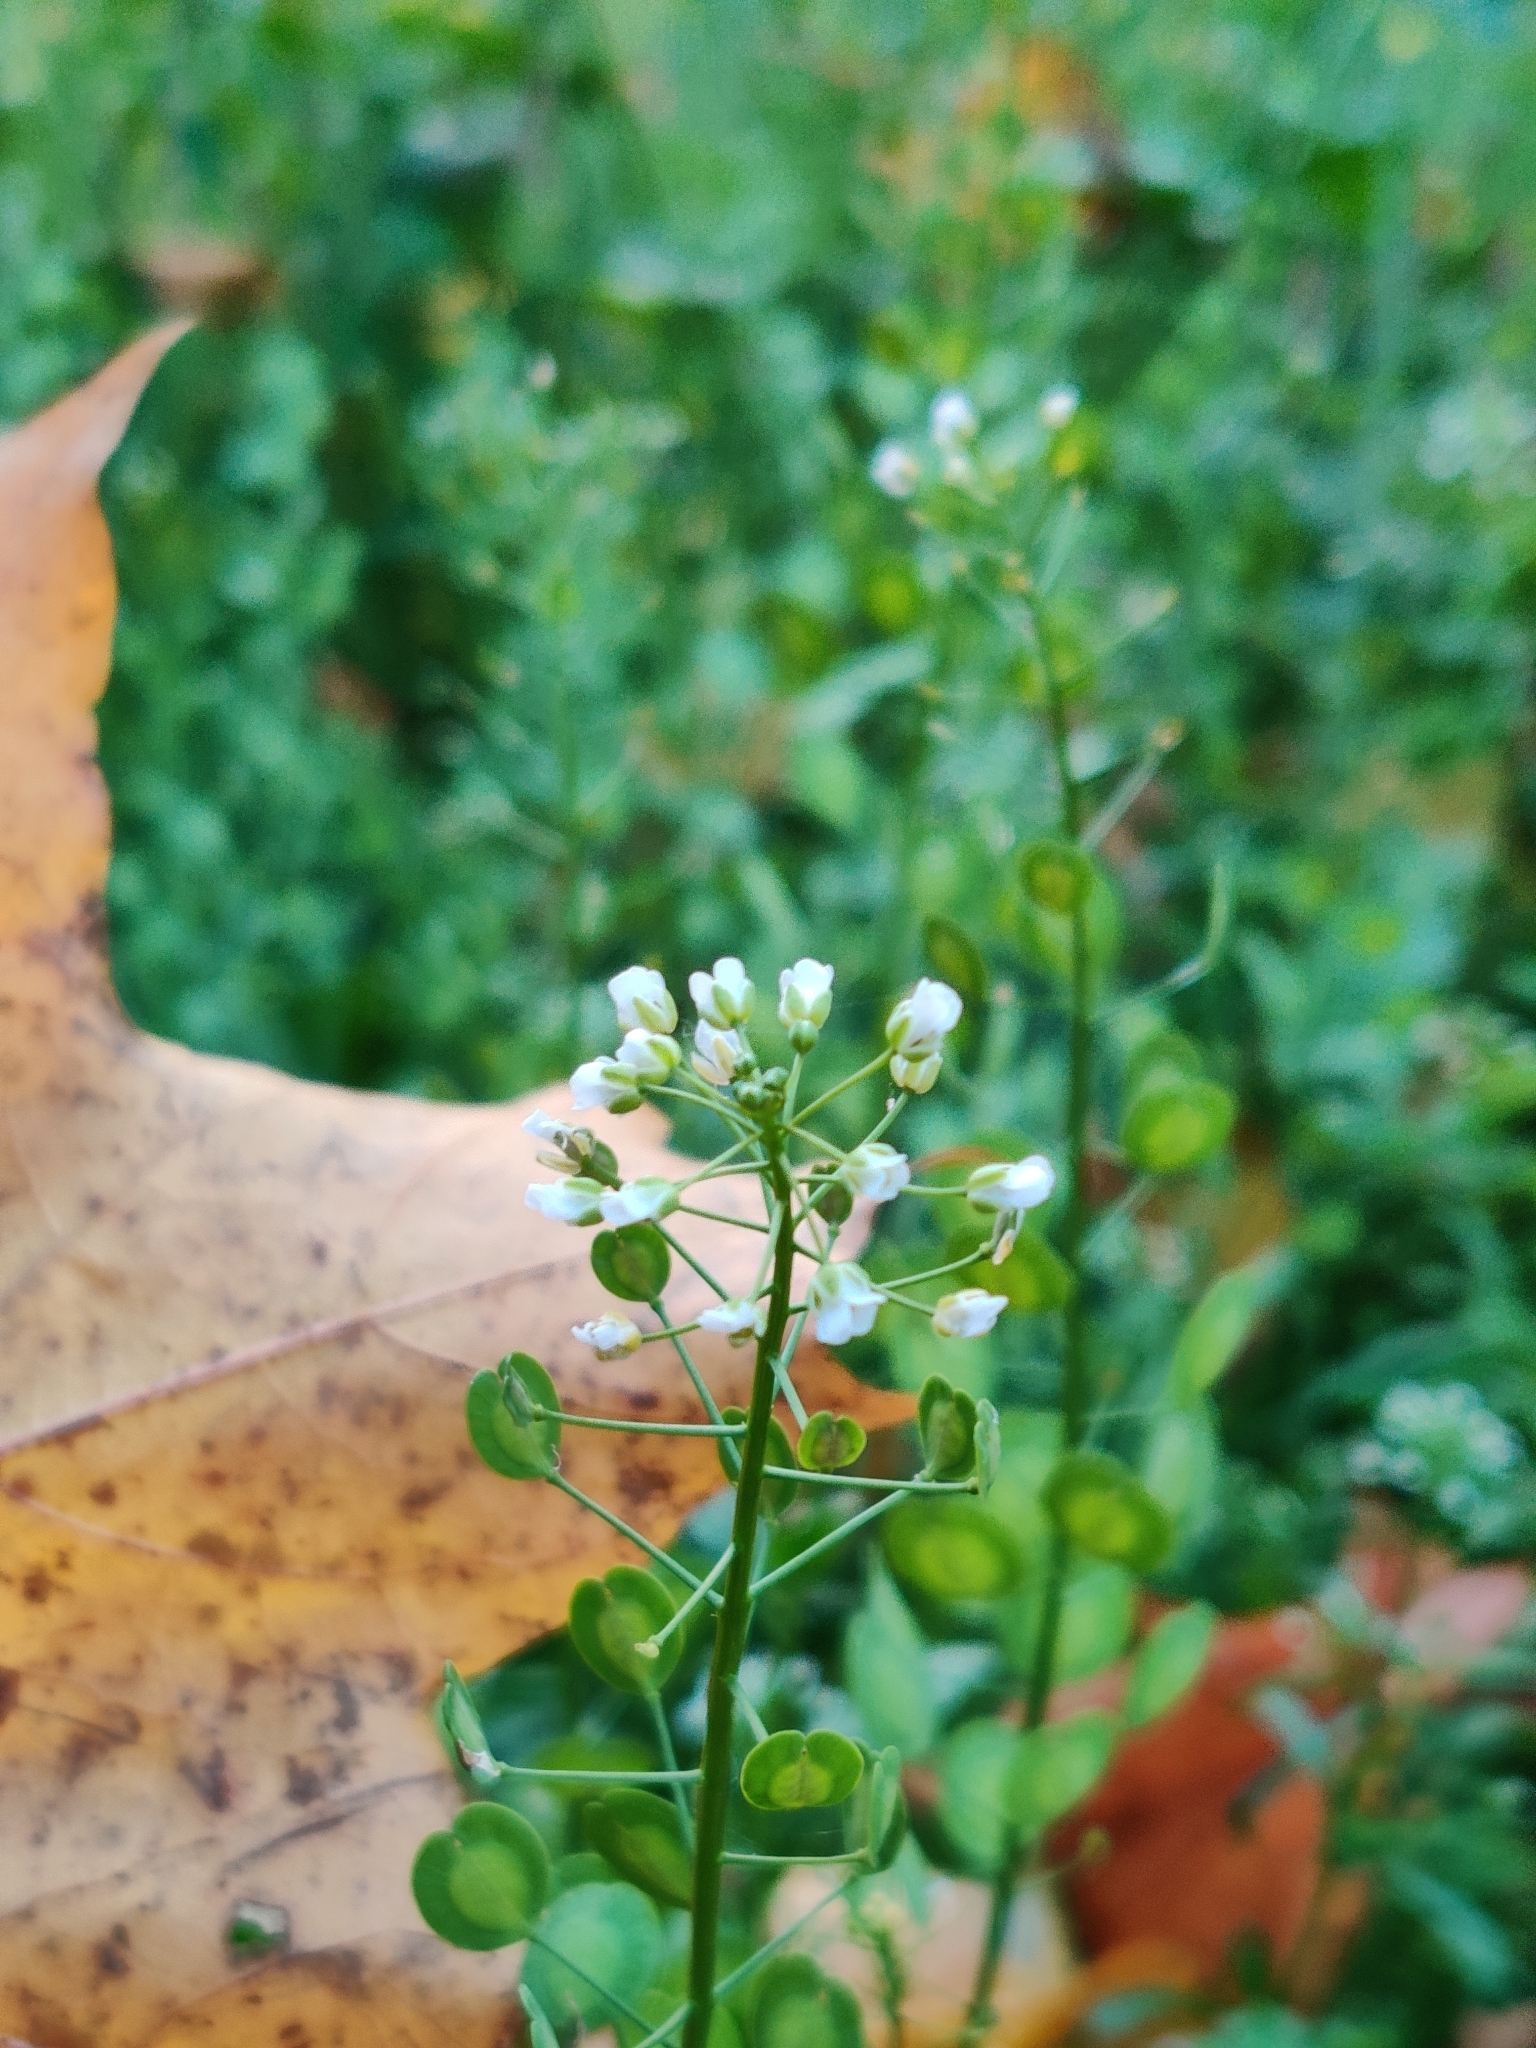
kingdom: Plantae
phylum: Tracheophyta
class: Magnoliopsida
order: Brassicales
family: Brassicaceae
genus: Thlaspi
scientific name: Thlaspi arvense
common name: Field pennycress
